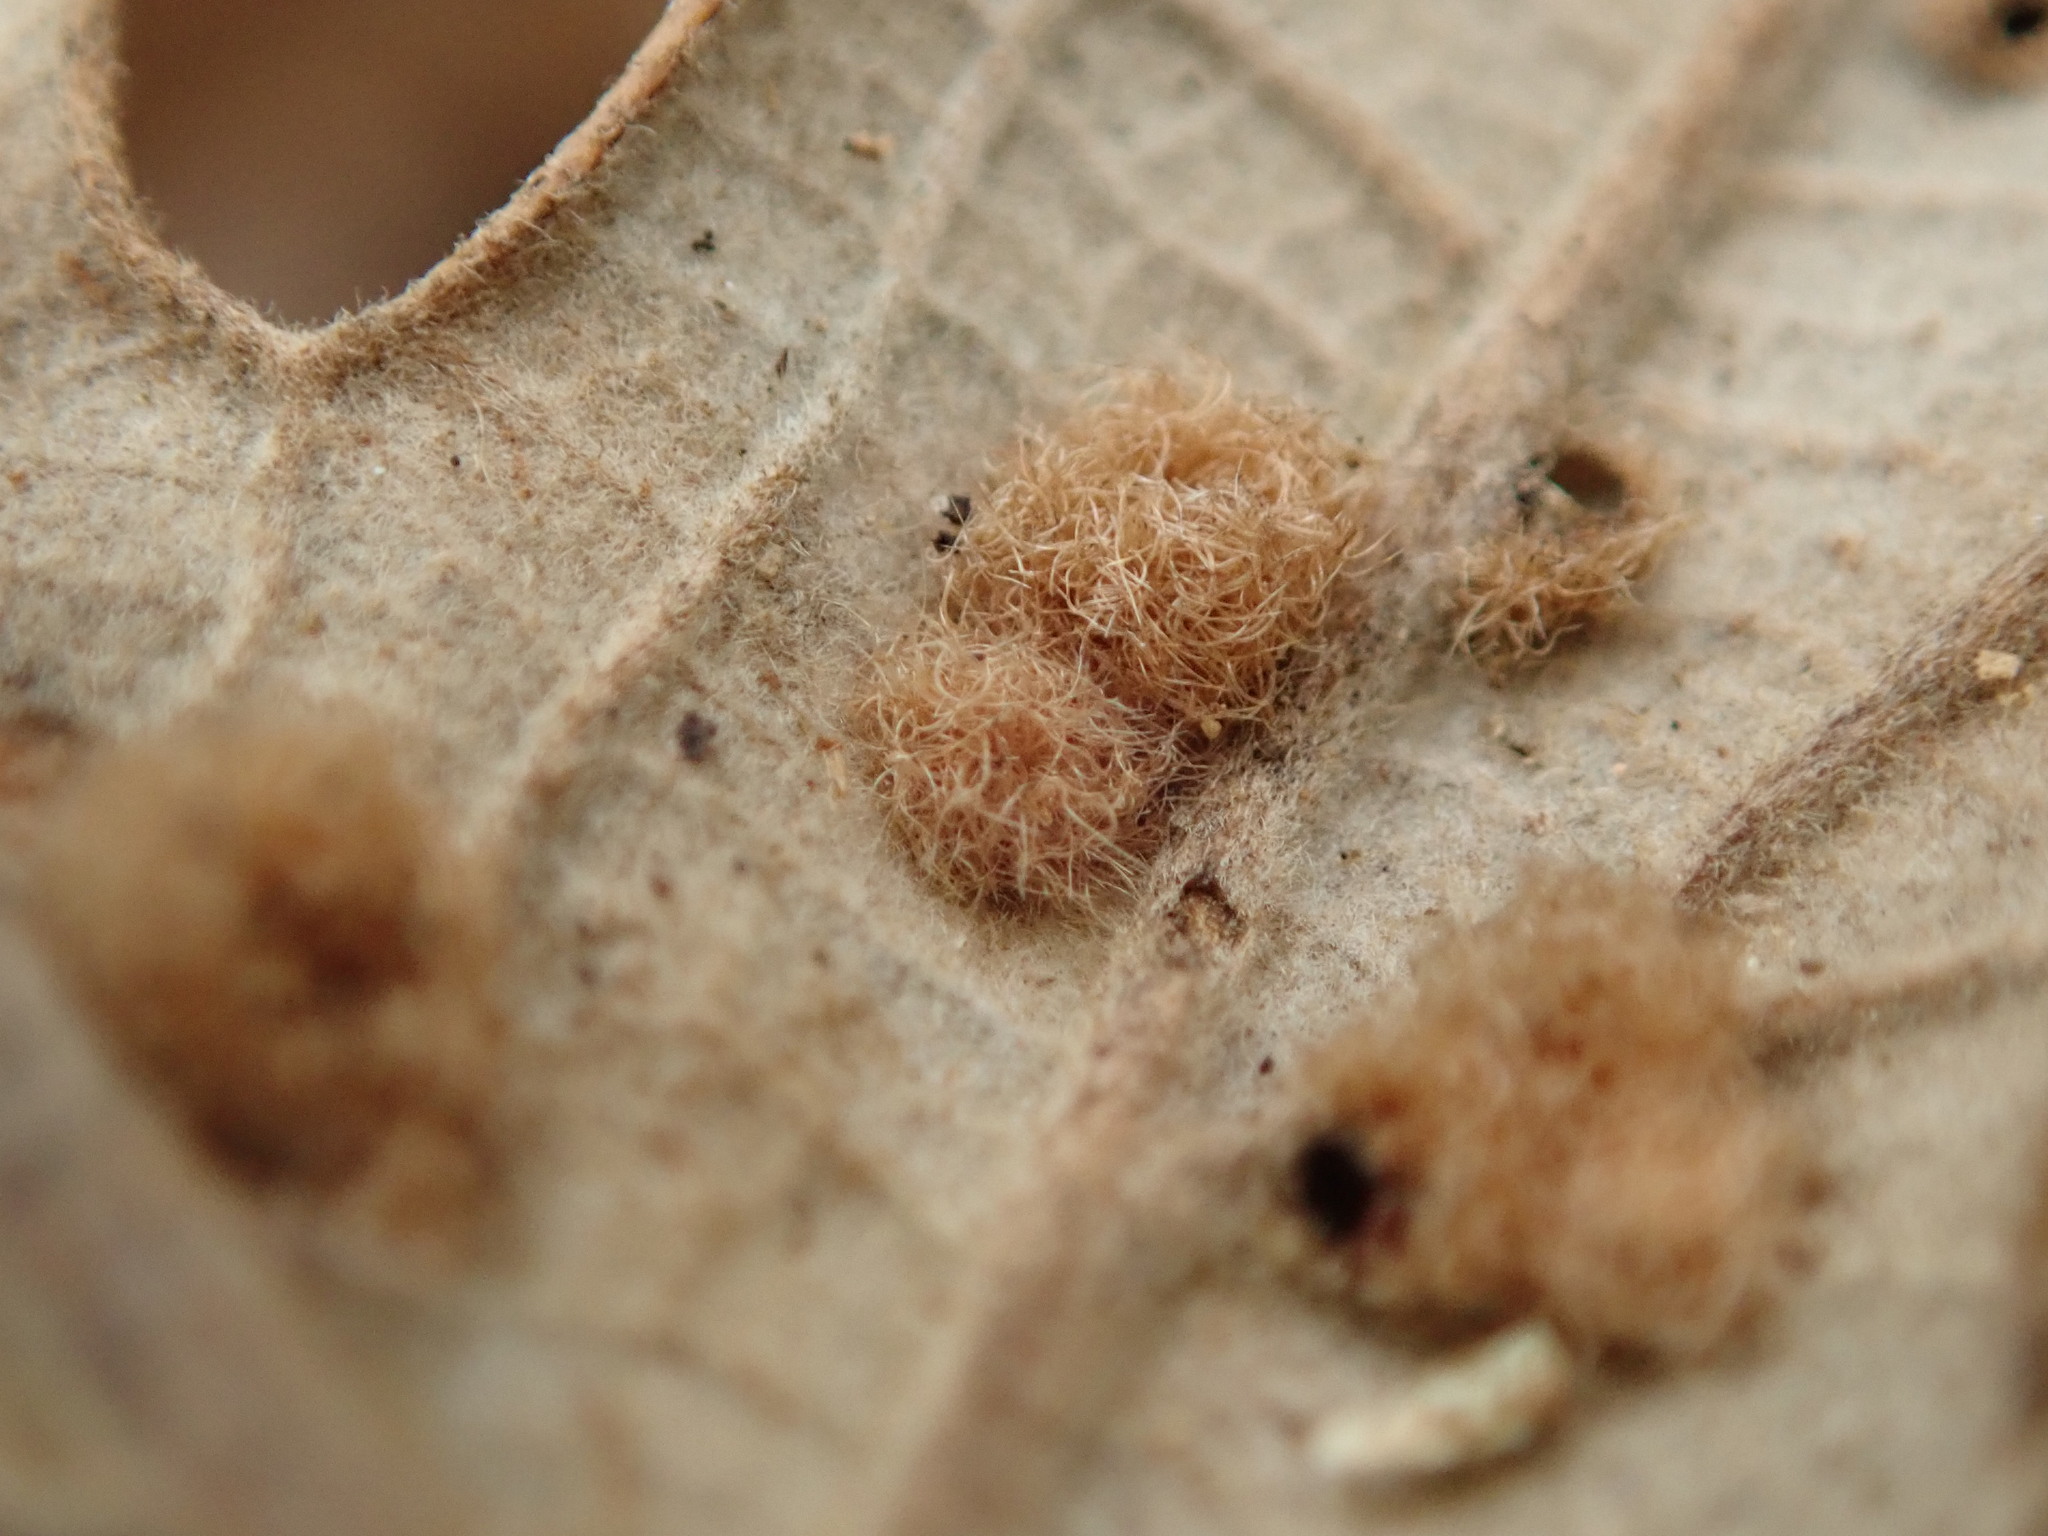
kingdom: Animalia
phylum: Arthropoda
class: Insecta
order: Hymenoptera
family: Cynipidae
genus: Neuroterus
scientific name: Neuroterus quercusverrucarum
